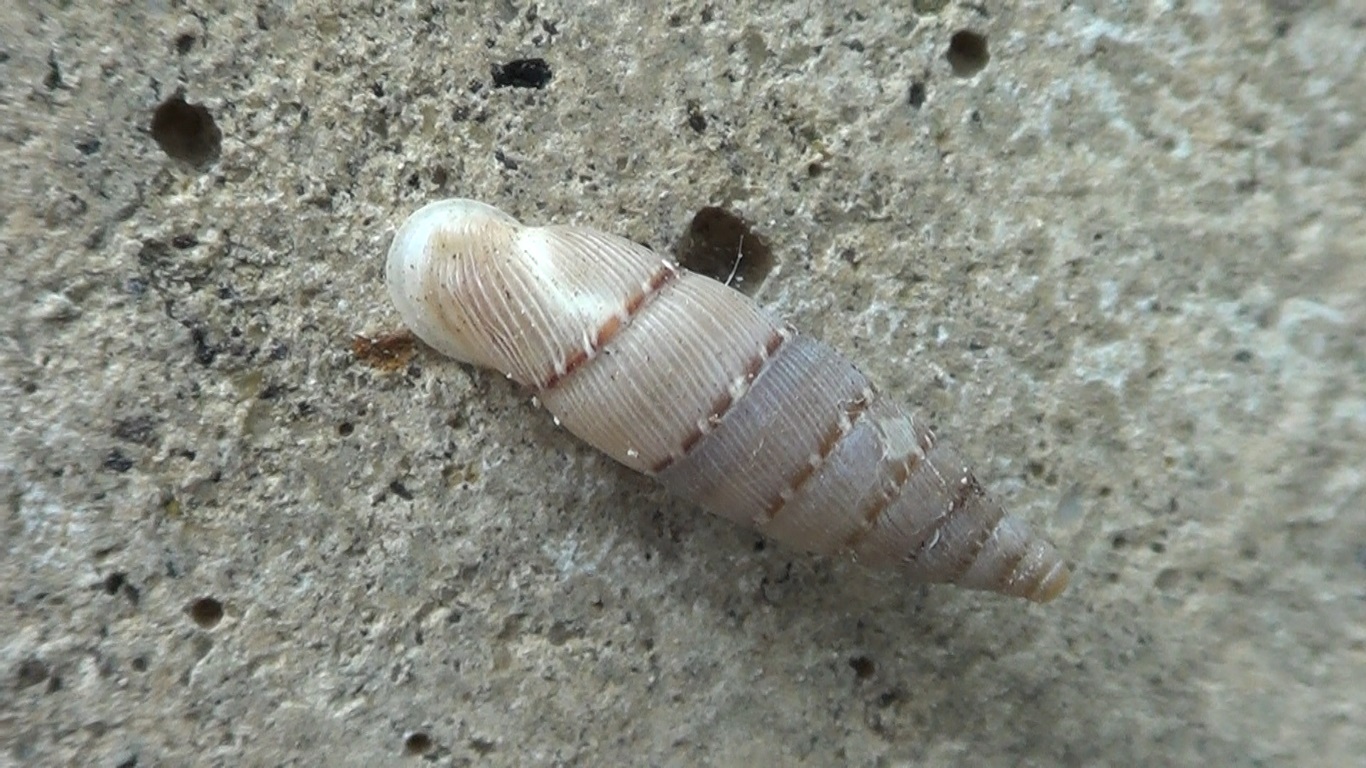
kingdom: Animalia
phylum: Mollusca
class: Gastropoda
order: Stylommatophora
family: Clausiliidae
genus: Papillifera
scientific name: Papillifera papillaris
